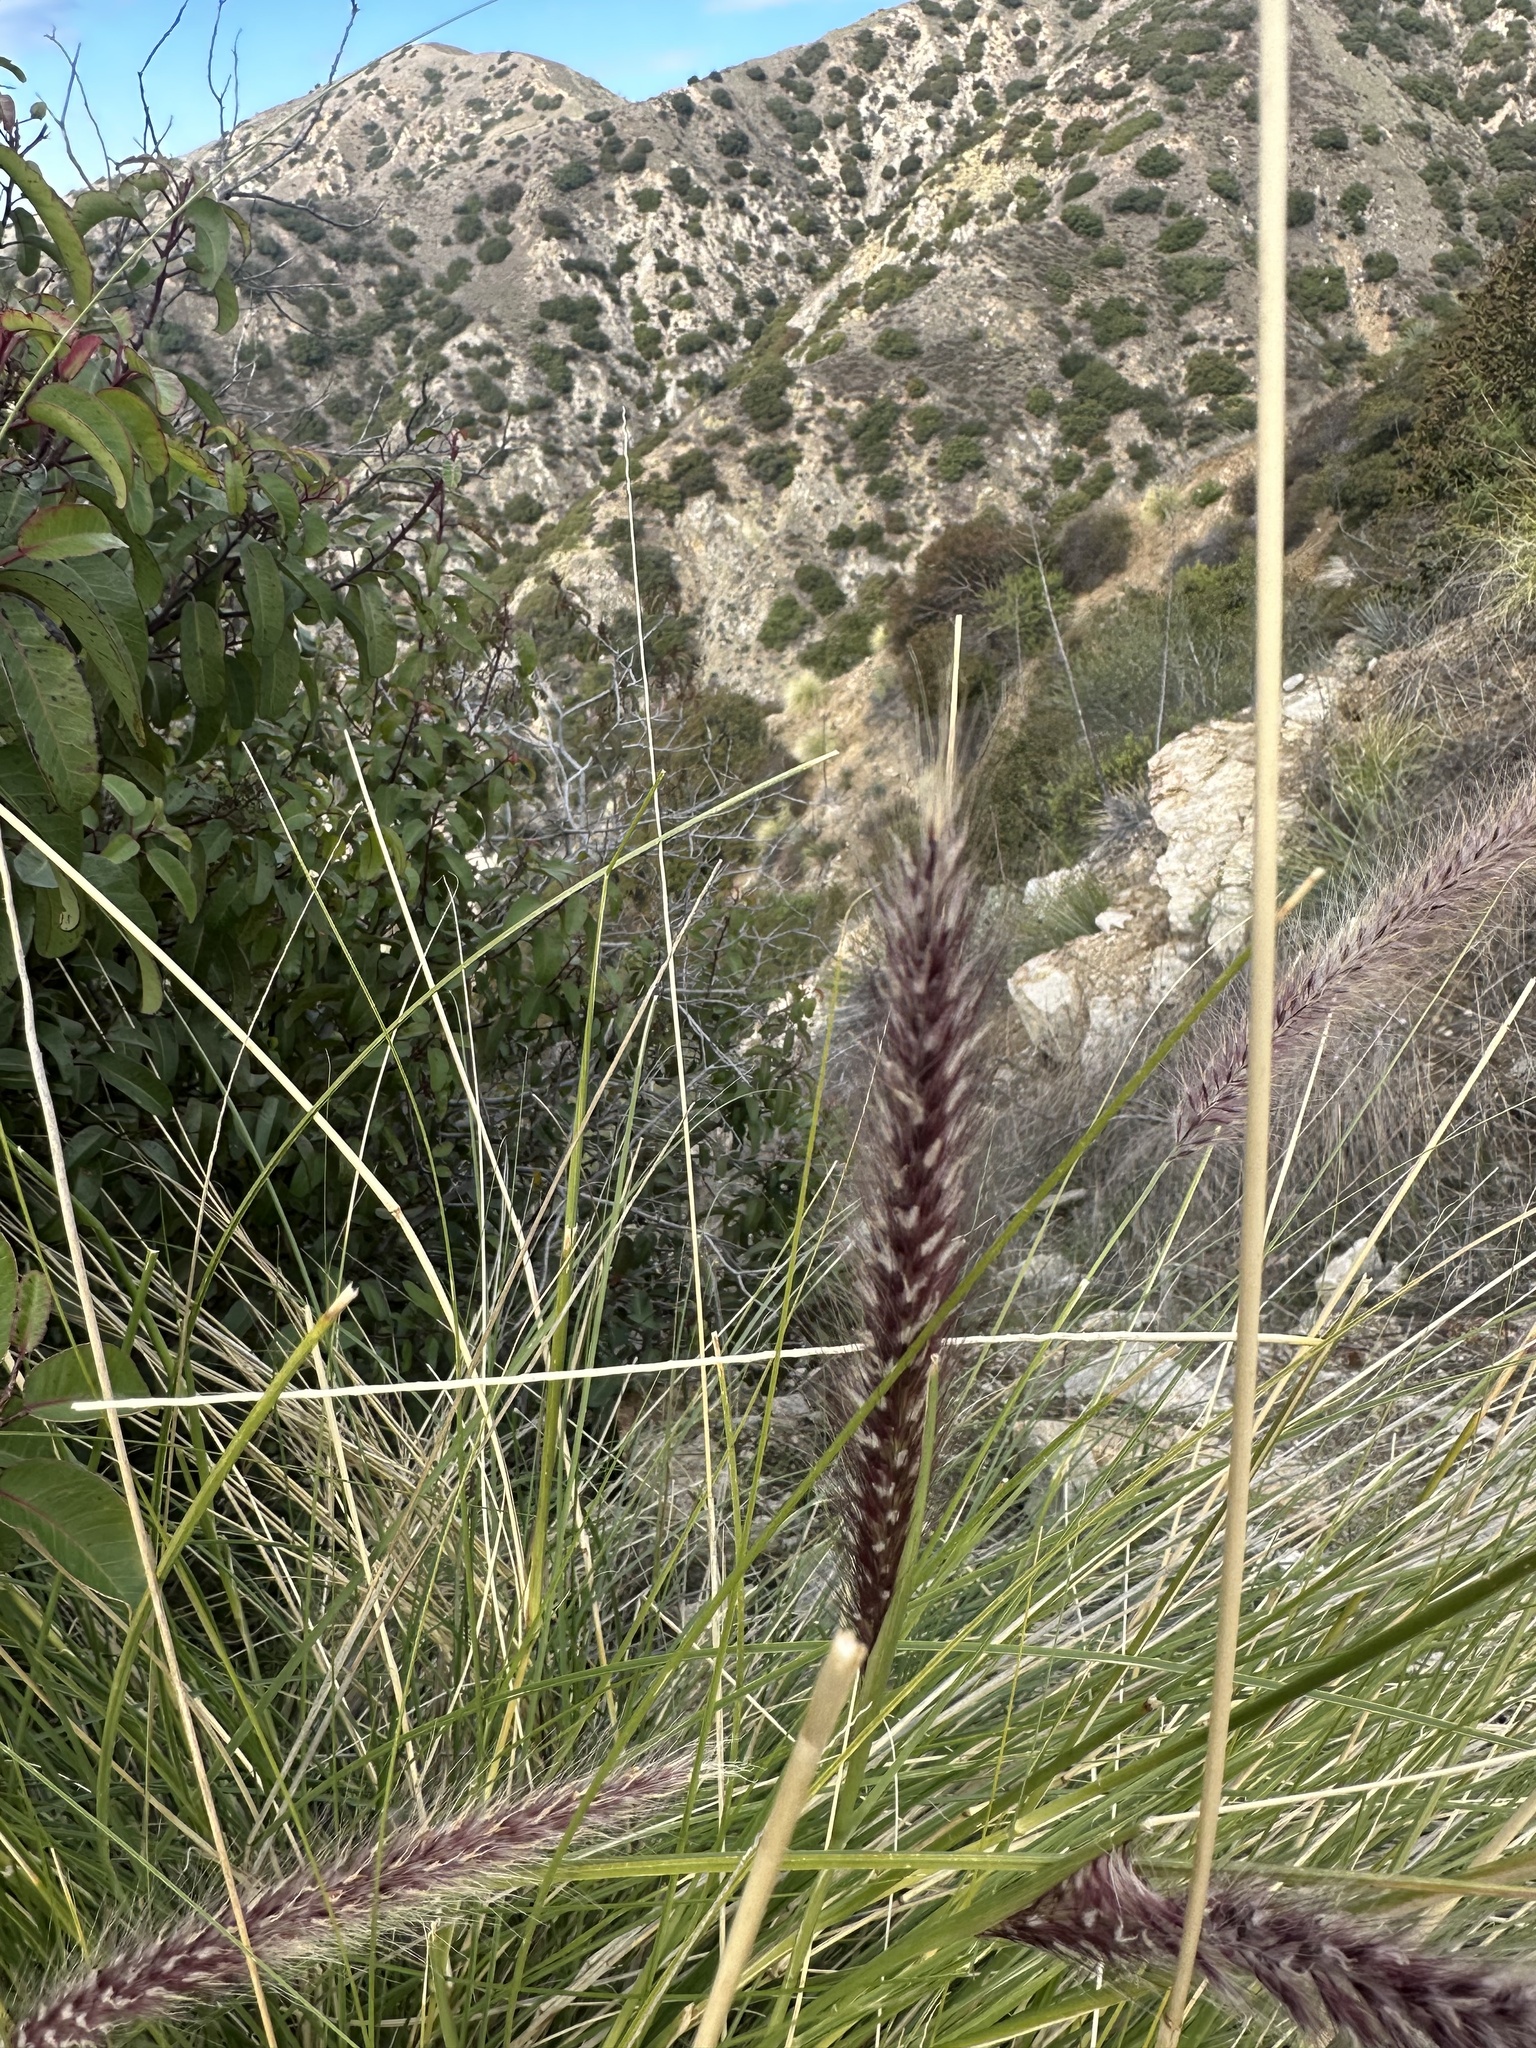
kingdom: Plantae
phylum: Tracheophyta
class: Liliopsida
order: Poales
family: Poaceae
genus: Cenchrus
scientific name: Cenchrus setaceus
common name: Crimson fountaingrass
